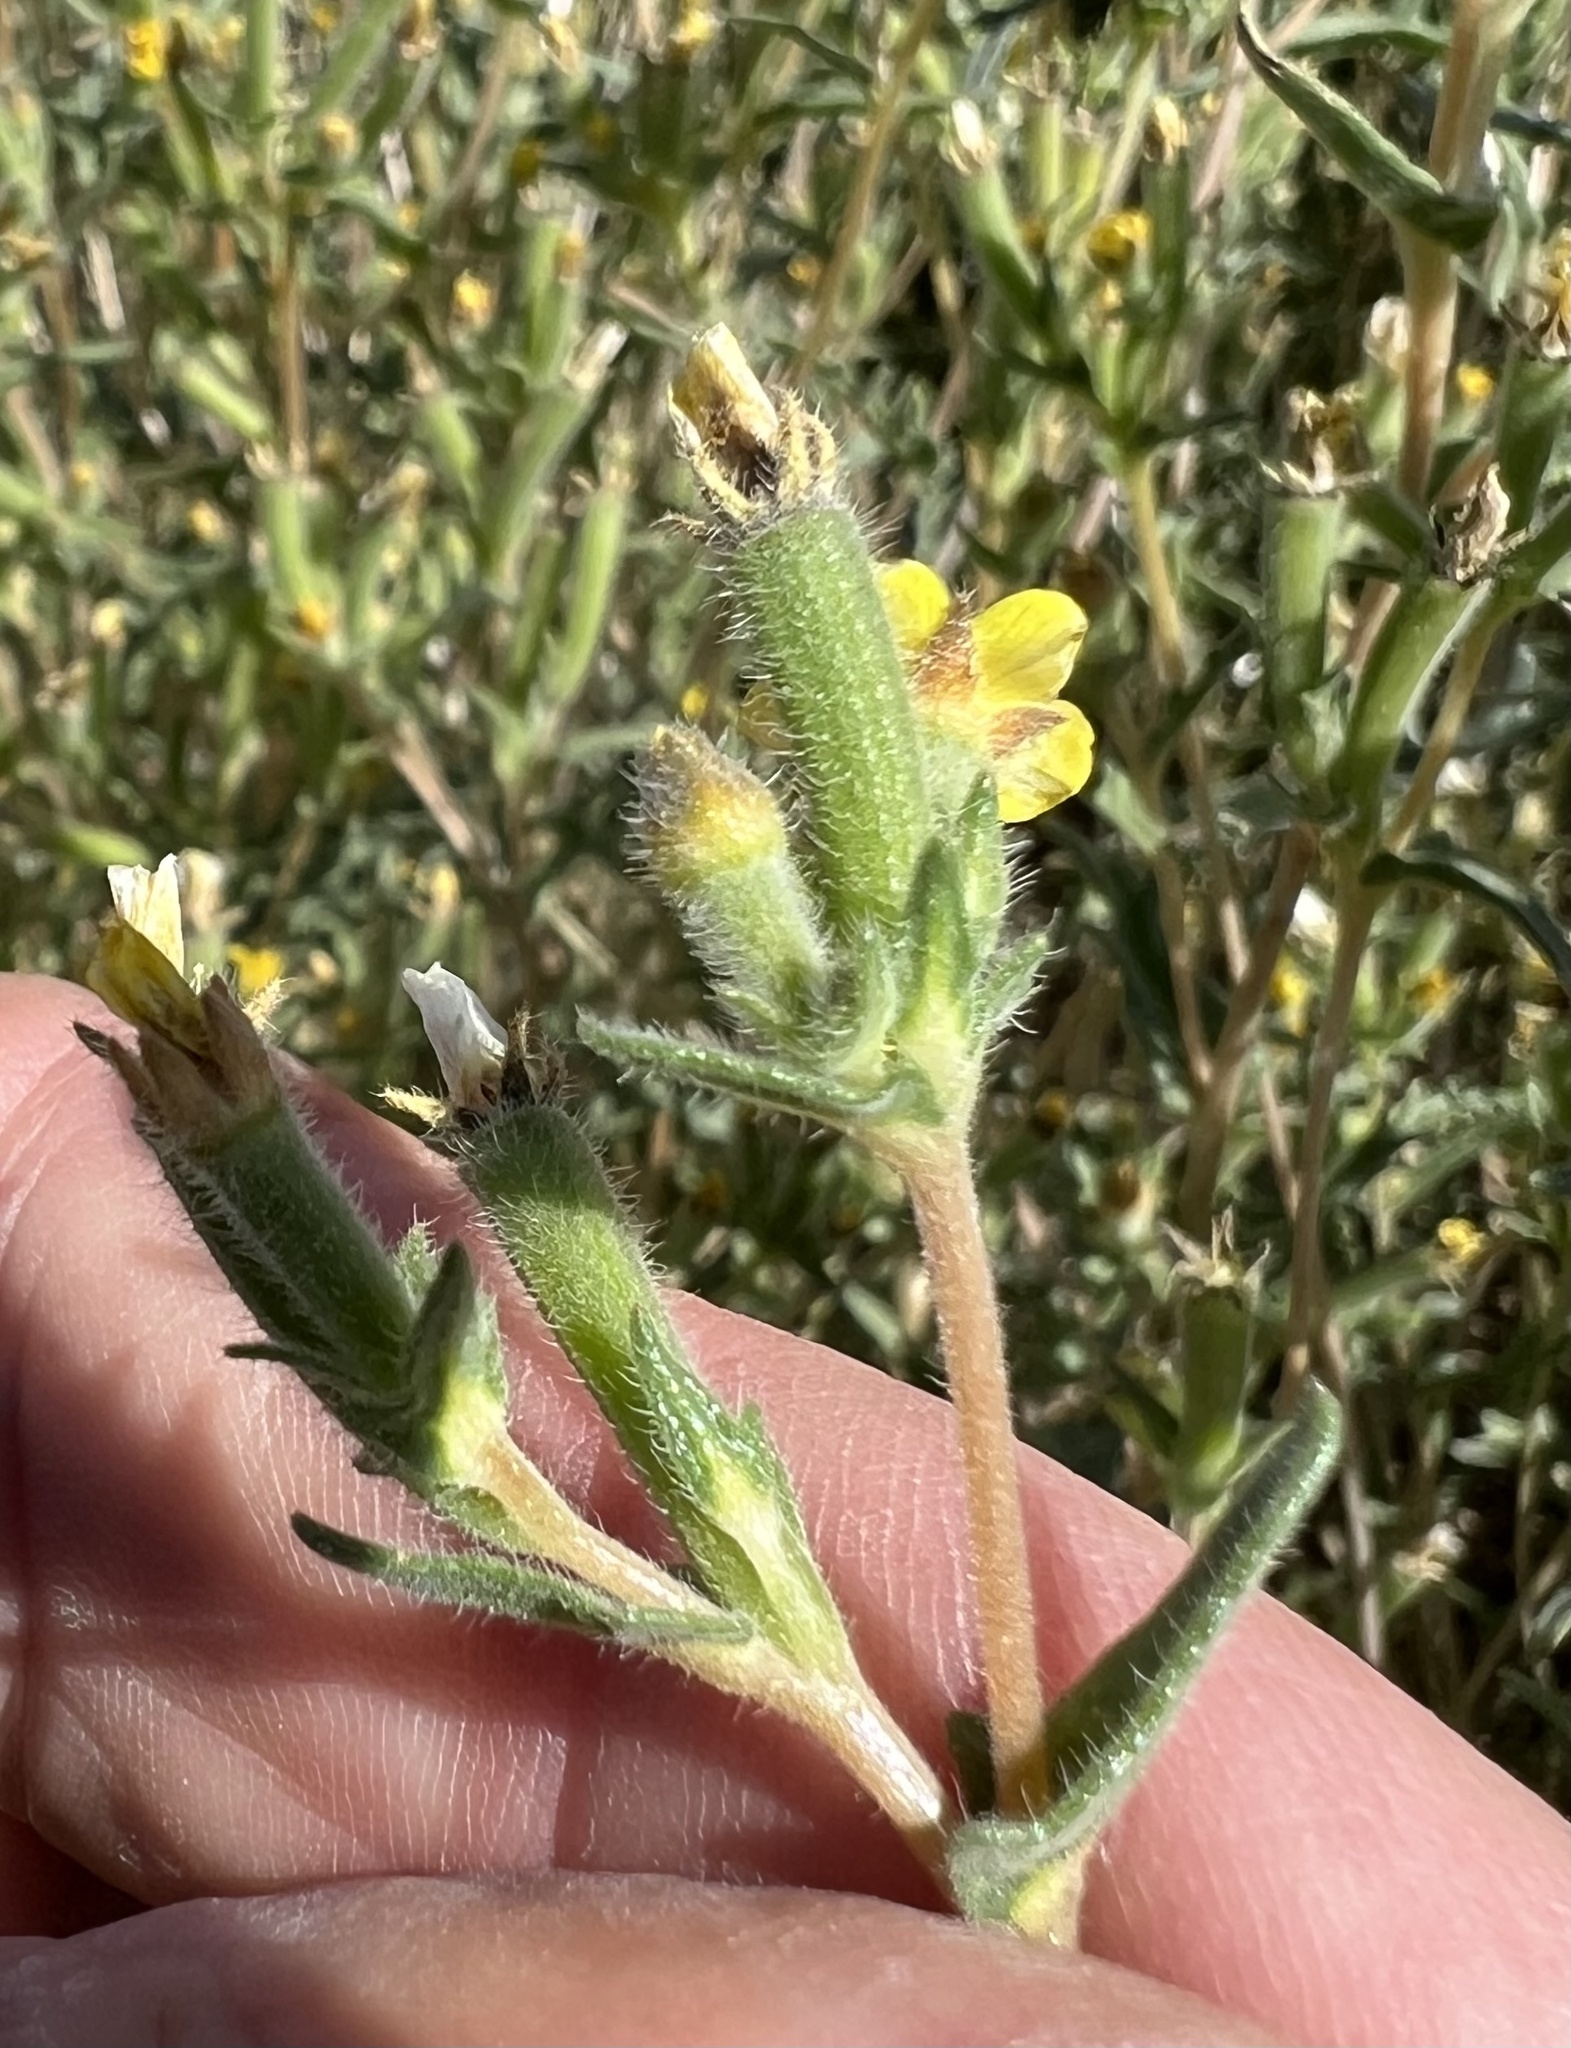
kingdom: Plantae
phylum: Tracheophyta
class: Magnoliopsida
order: Cornales
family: Loasaceae
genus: Mentzelia
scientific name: Mentzelia albicaulis
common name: White-stem blazingstar
